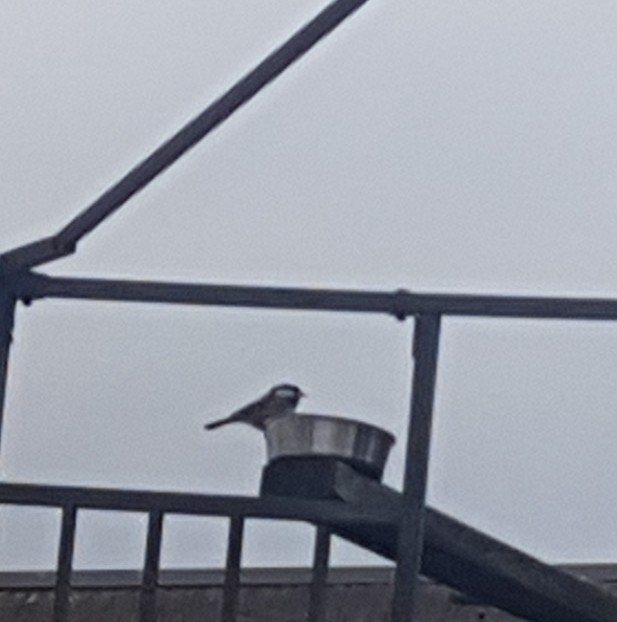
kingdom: Animalia
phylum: Chordata
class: Aves
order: Passeriformes
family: Paridae
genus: Poecile
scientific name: Poecile atricapillus
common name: Black-capped chickadee
